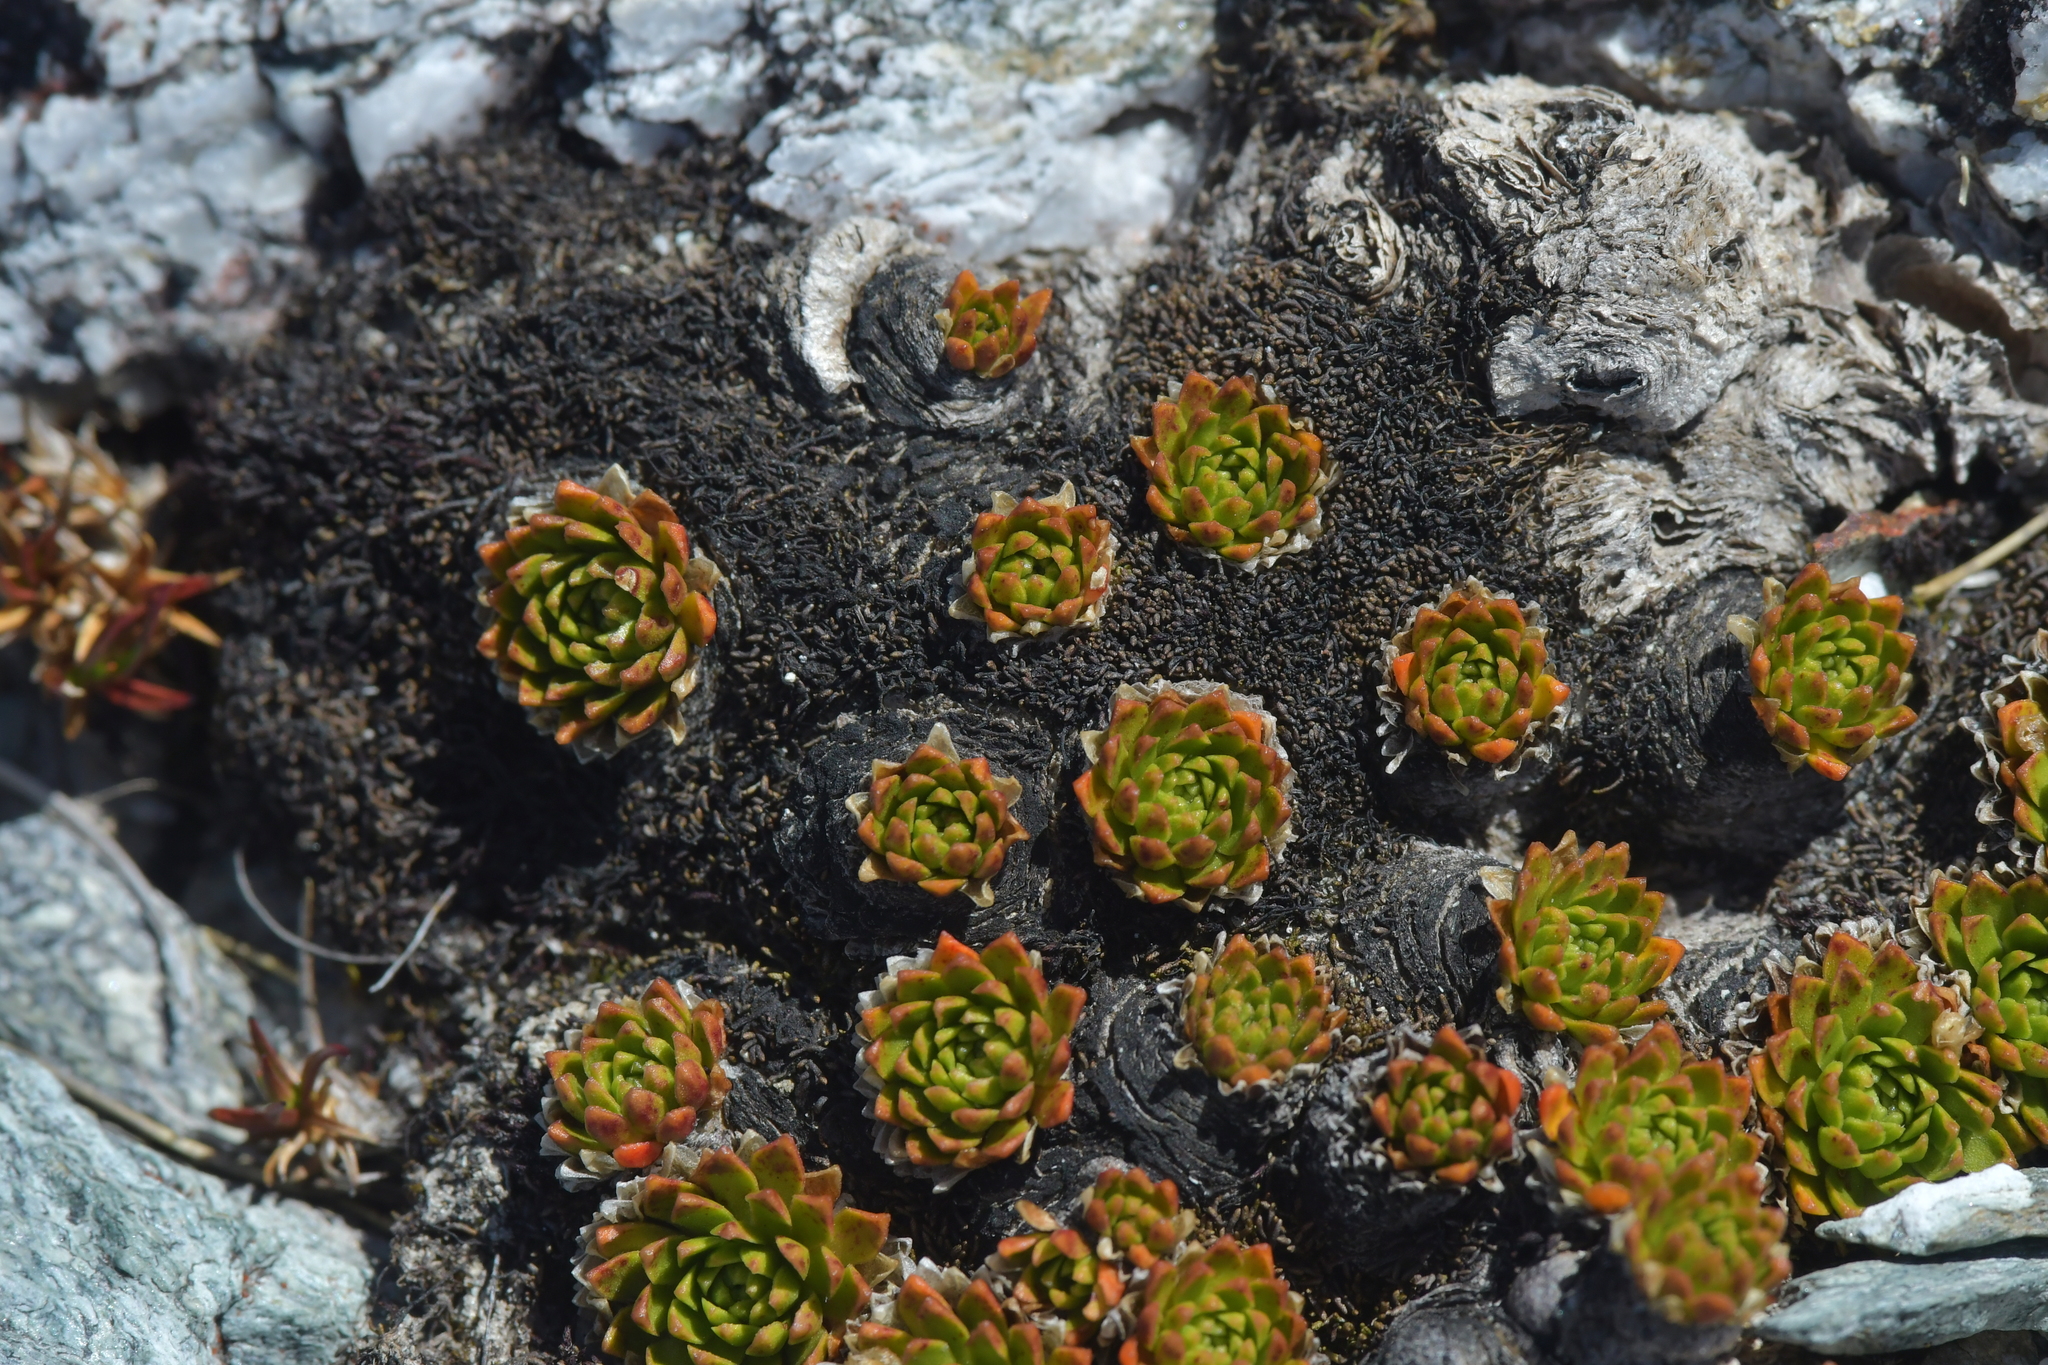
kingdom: Plantae
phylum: Tracheophyta
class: Magnoliopsida
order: Caryophyllales
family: Montiaceae
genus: Hectorella
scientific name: Hectorella caespitosa
